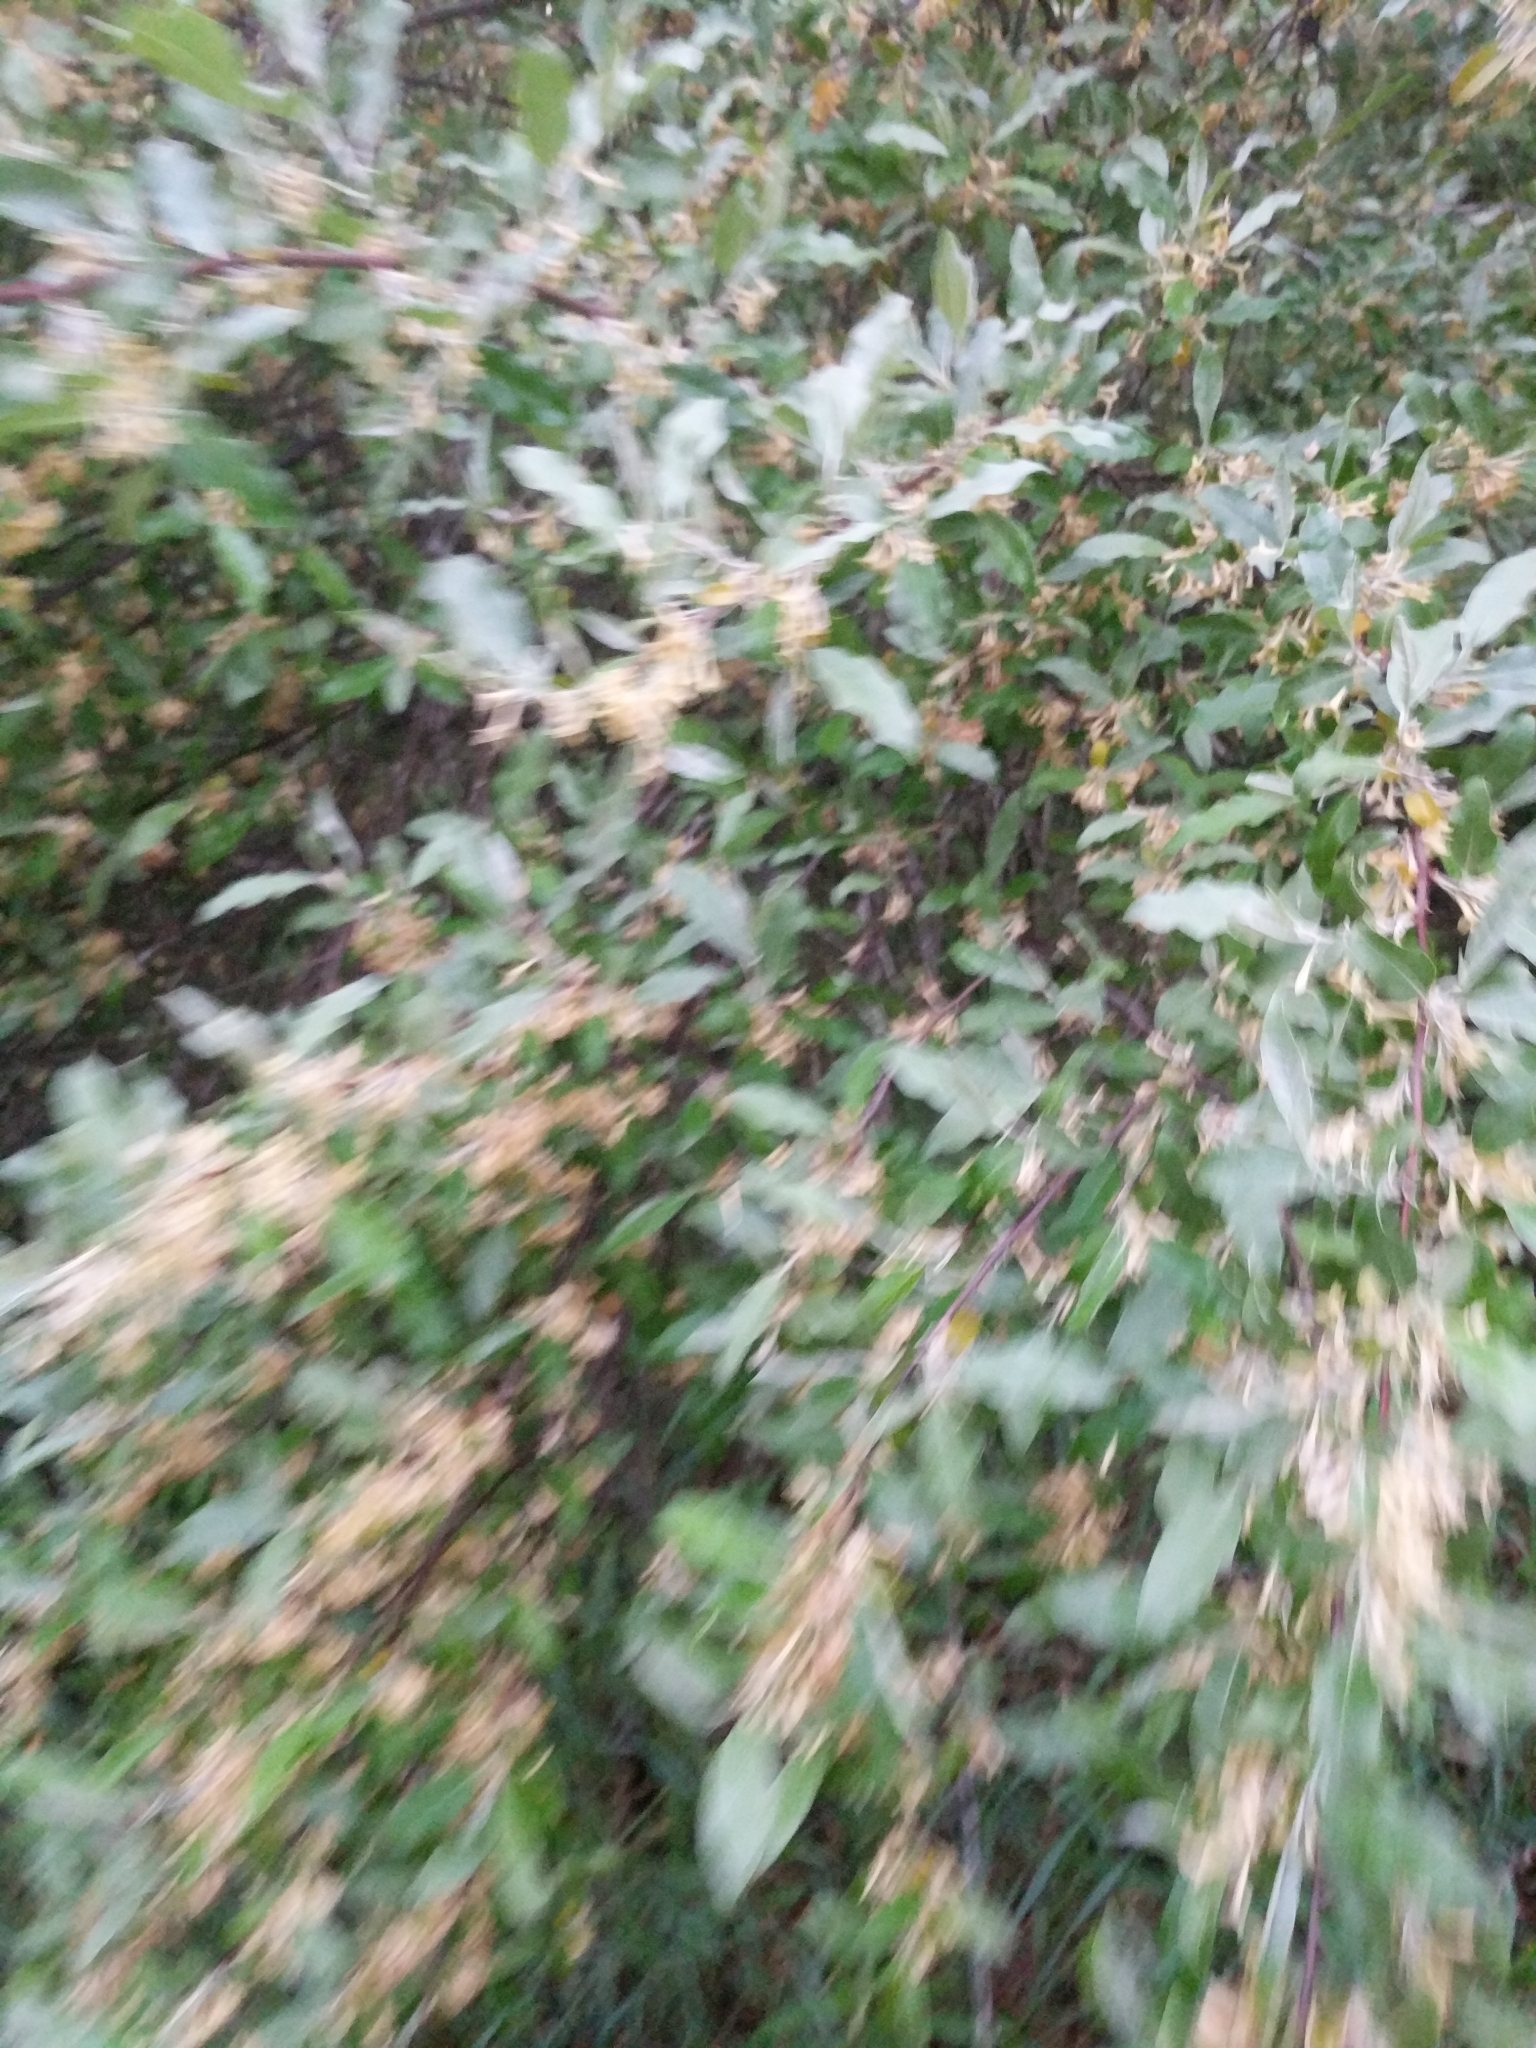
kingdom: Plantae
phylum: Tracheophyta
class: Magnoliopsida
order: Rosales
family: Elaeagnaceae
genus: Elaeagnus
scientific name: Elaeagnus umbellata
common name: Autumn olive
